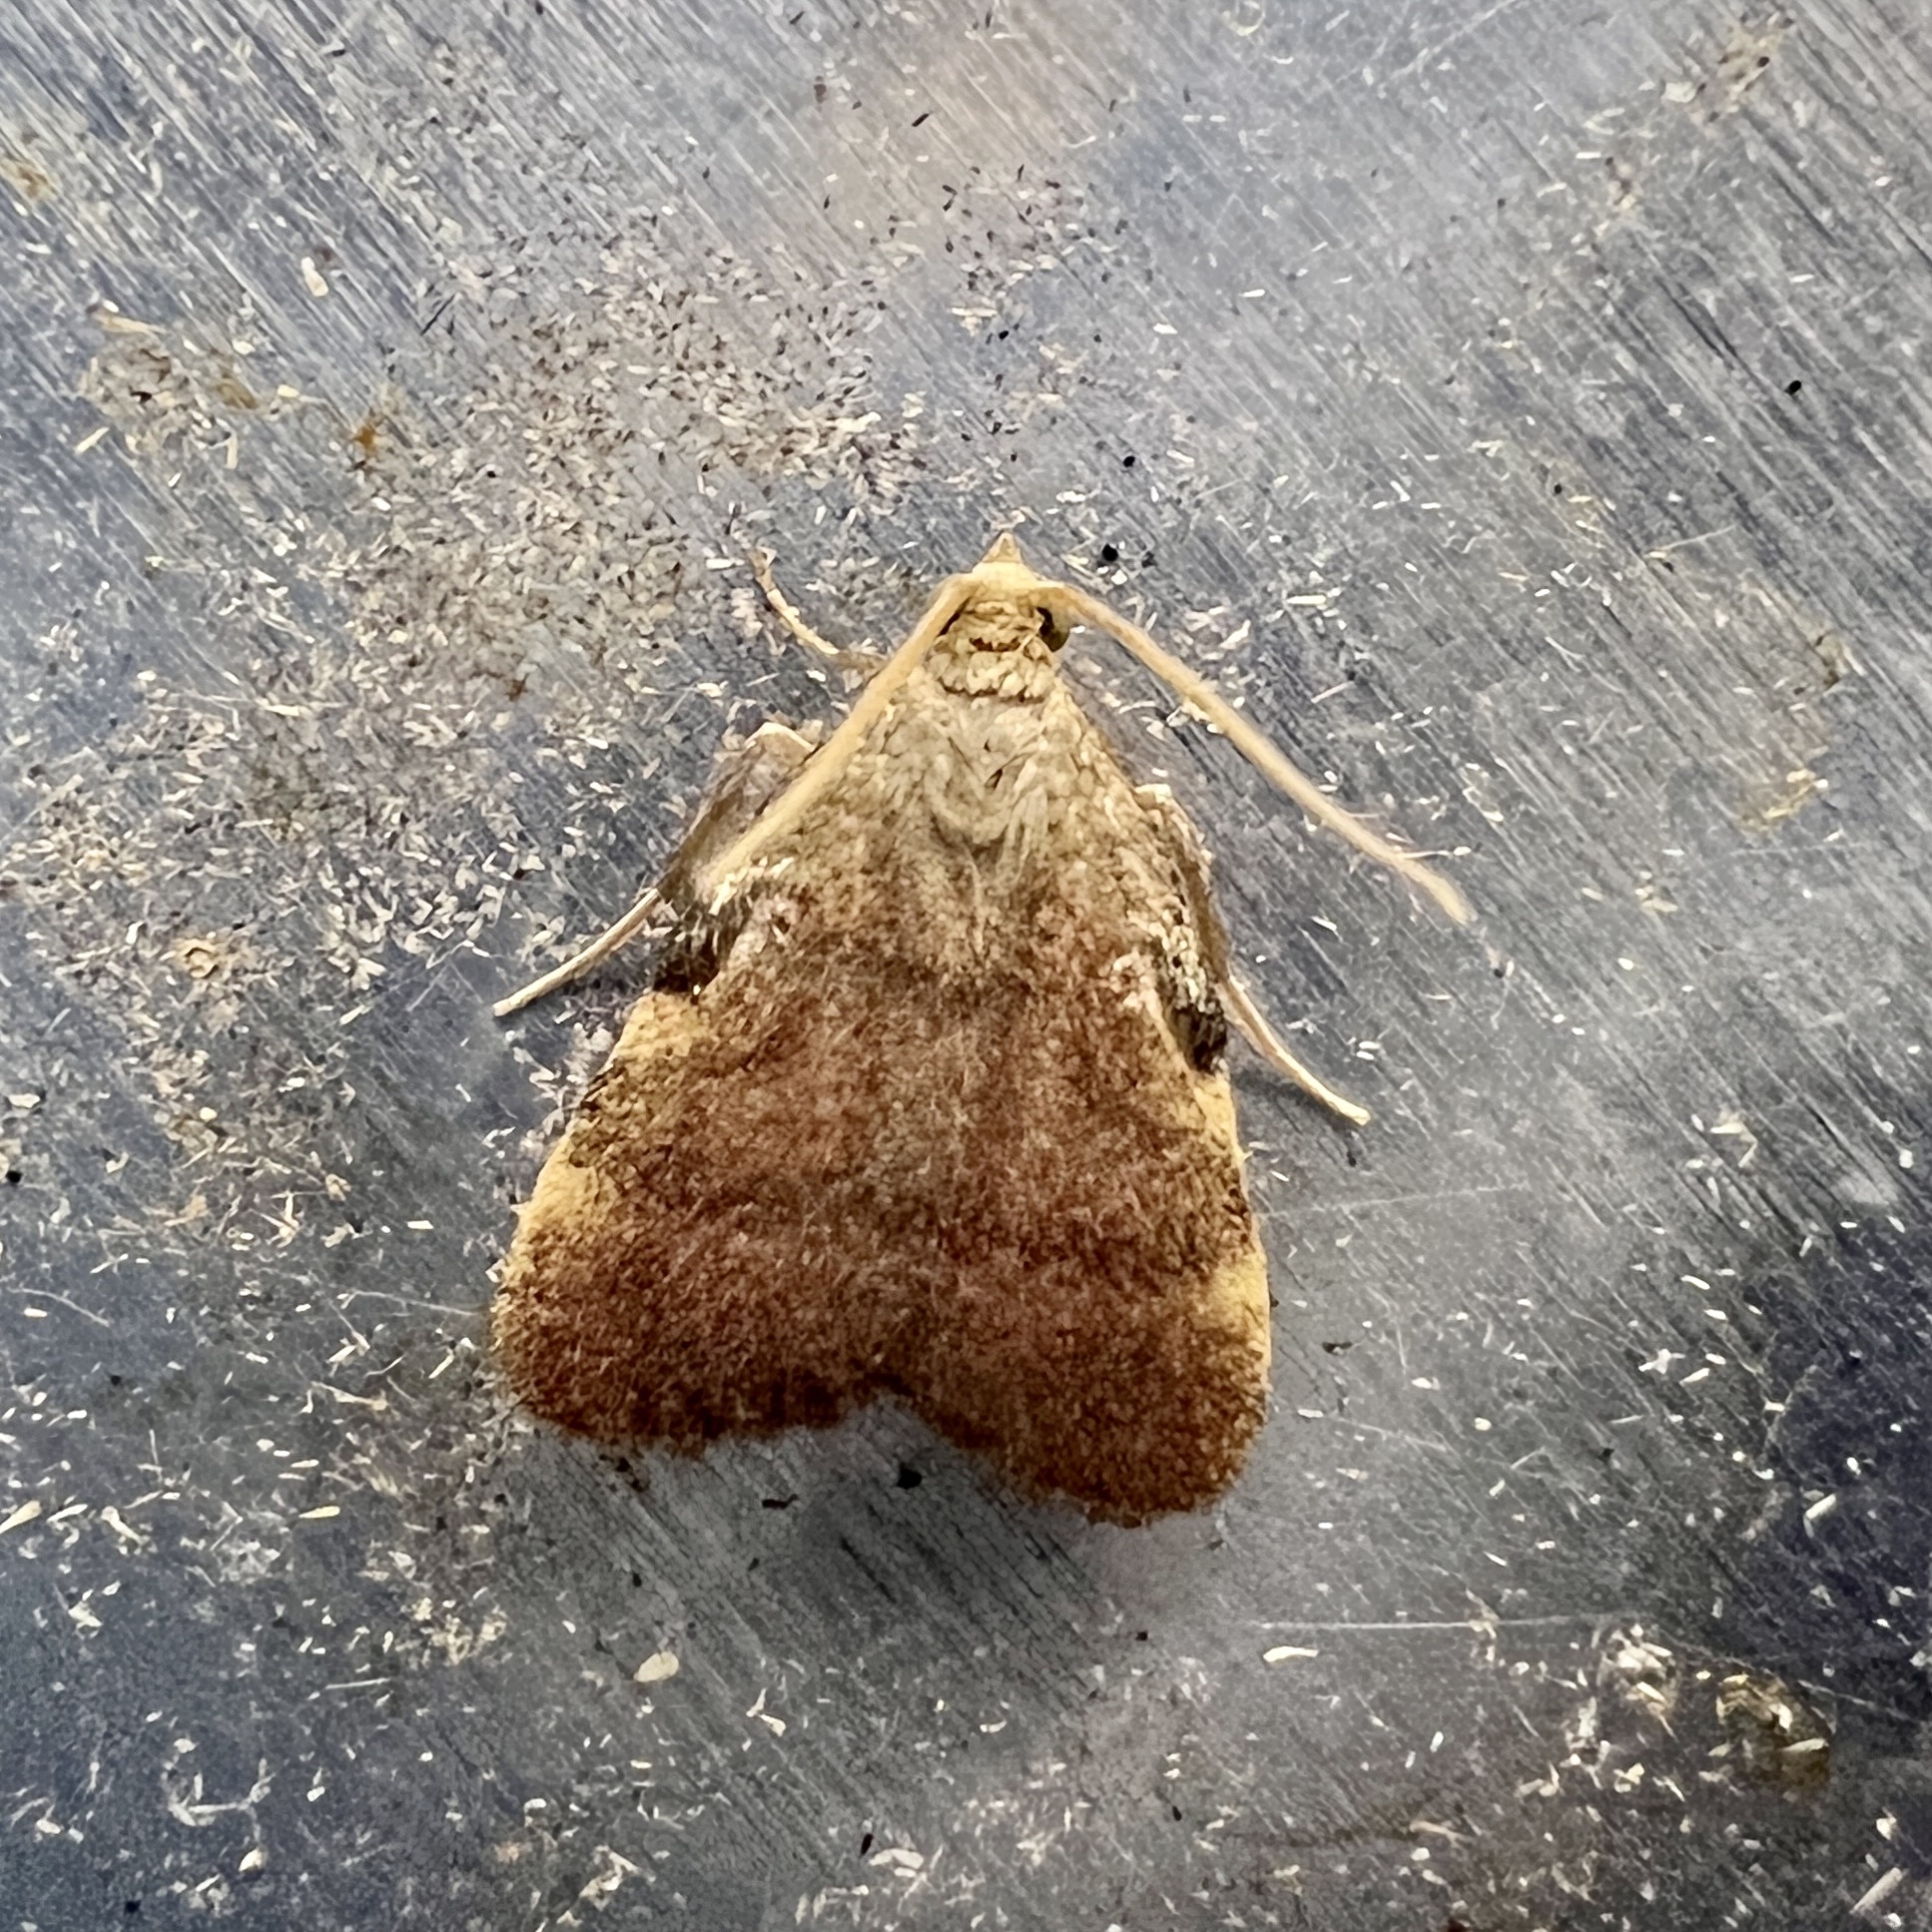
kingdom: Animalia
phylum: Arthropoda
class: Insecta
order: Lepidoptera
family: Pyralidae
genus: Condylolomia
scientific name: Condylolomia participialis
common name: Drab condylolomia moth
